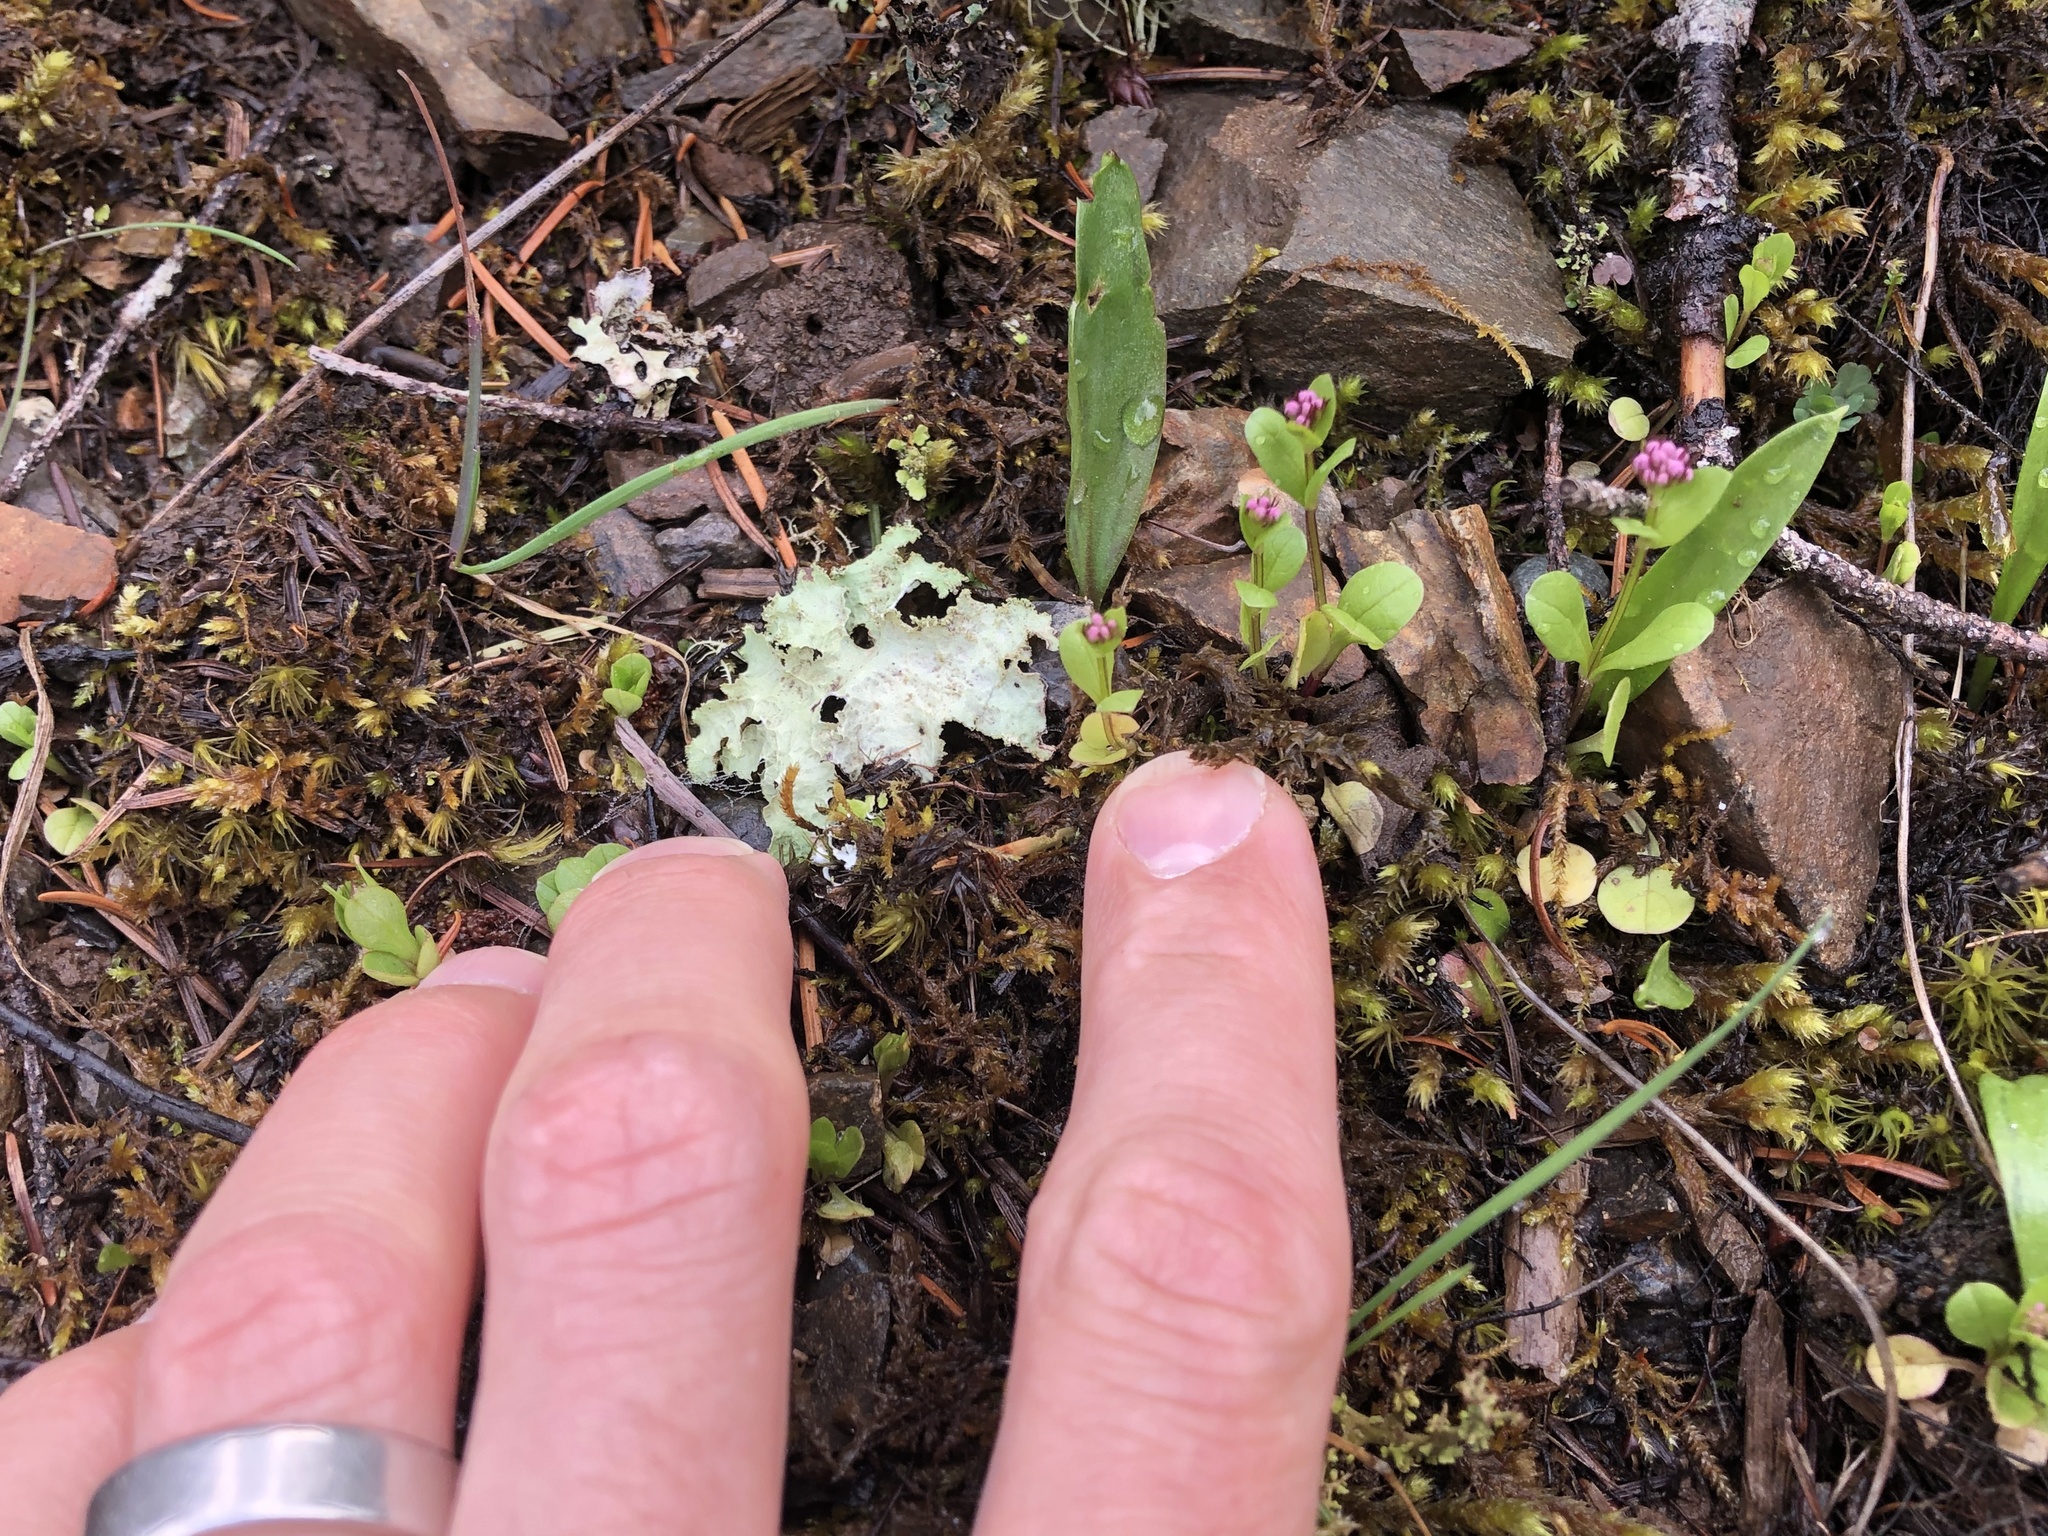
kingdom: Plantae
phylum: Tracheophyta
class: Magnoliopsida
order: Dipsacales
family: Caprifoliaceae
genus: Plectritis
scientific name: Plectritis congesta
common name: Pink plectritis
